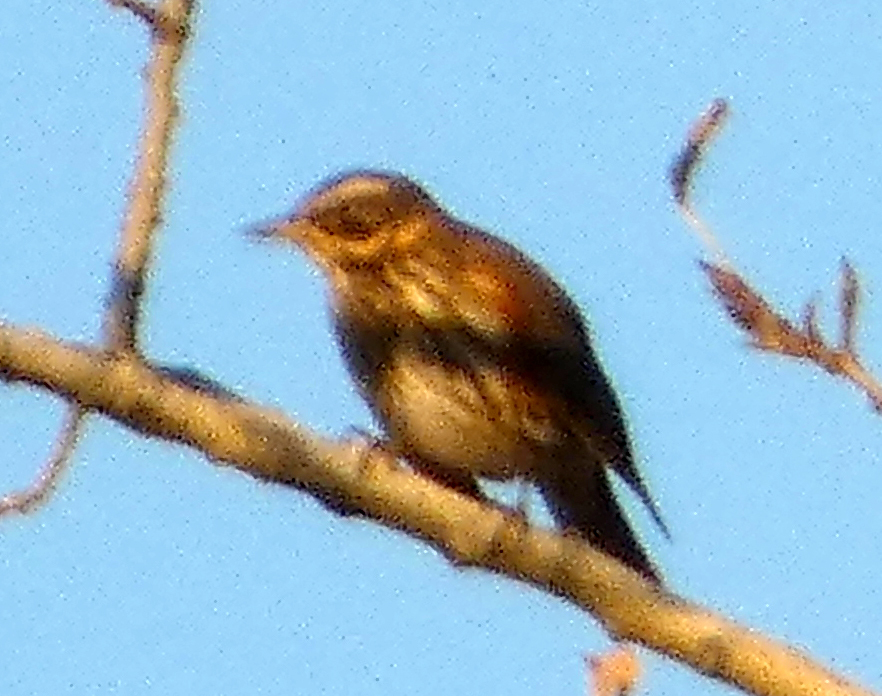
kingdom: Animalia
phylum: Chordata
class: Aves
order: Passeriformes
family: Turdidae
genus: Turdus
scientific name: Turdus iliacus
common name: Redwing
